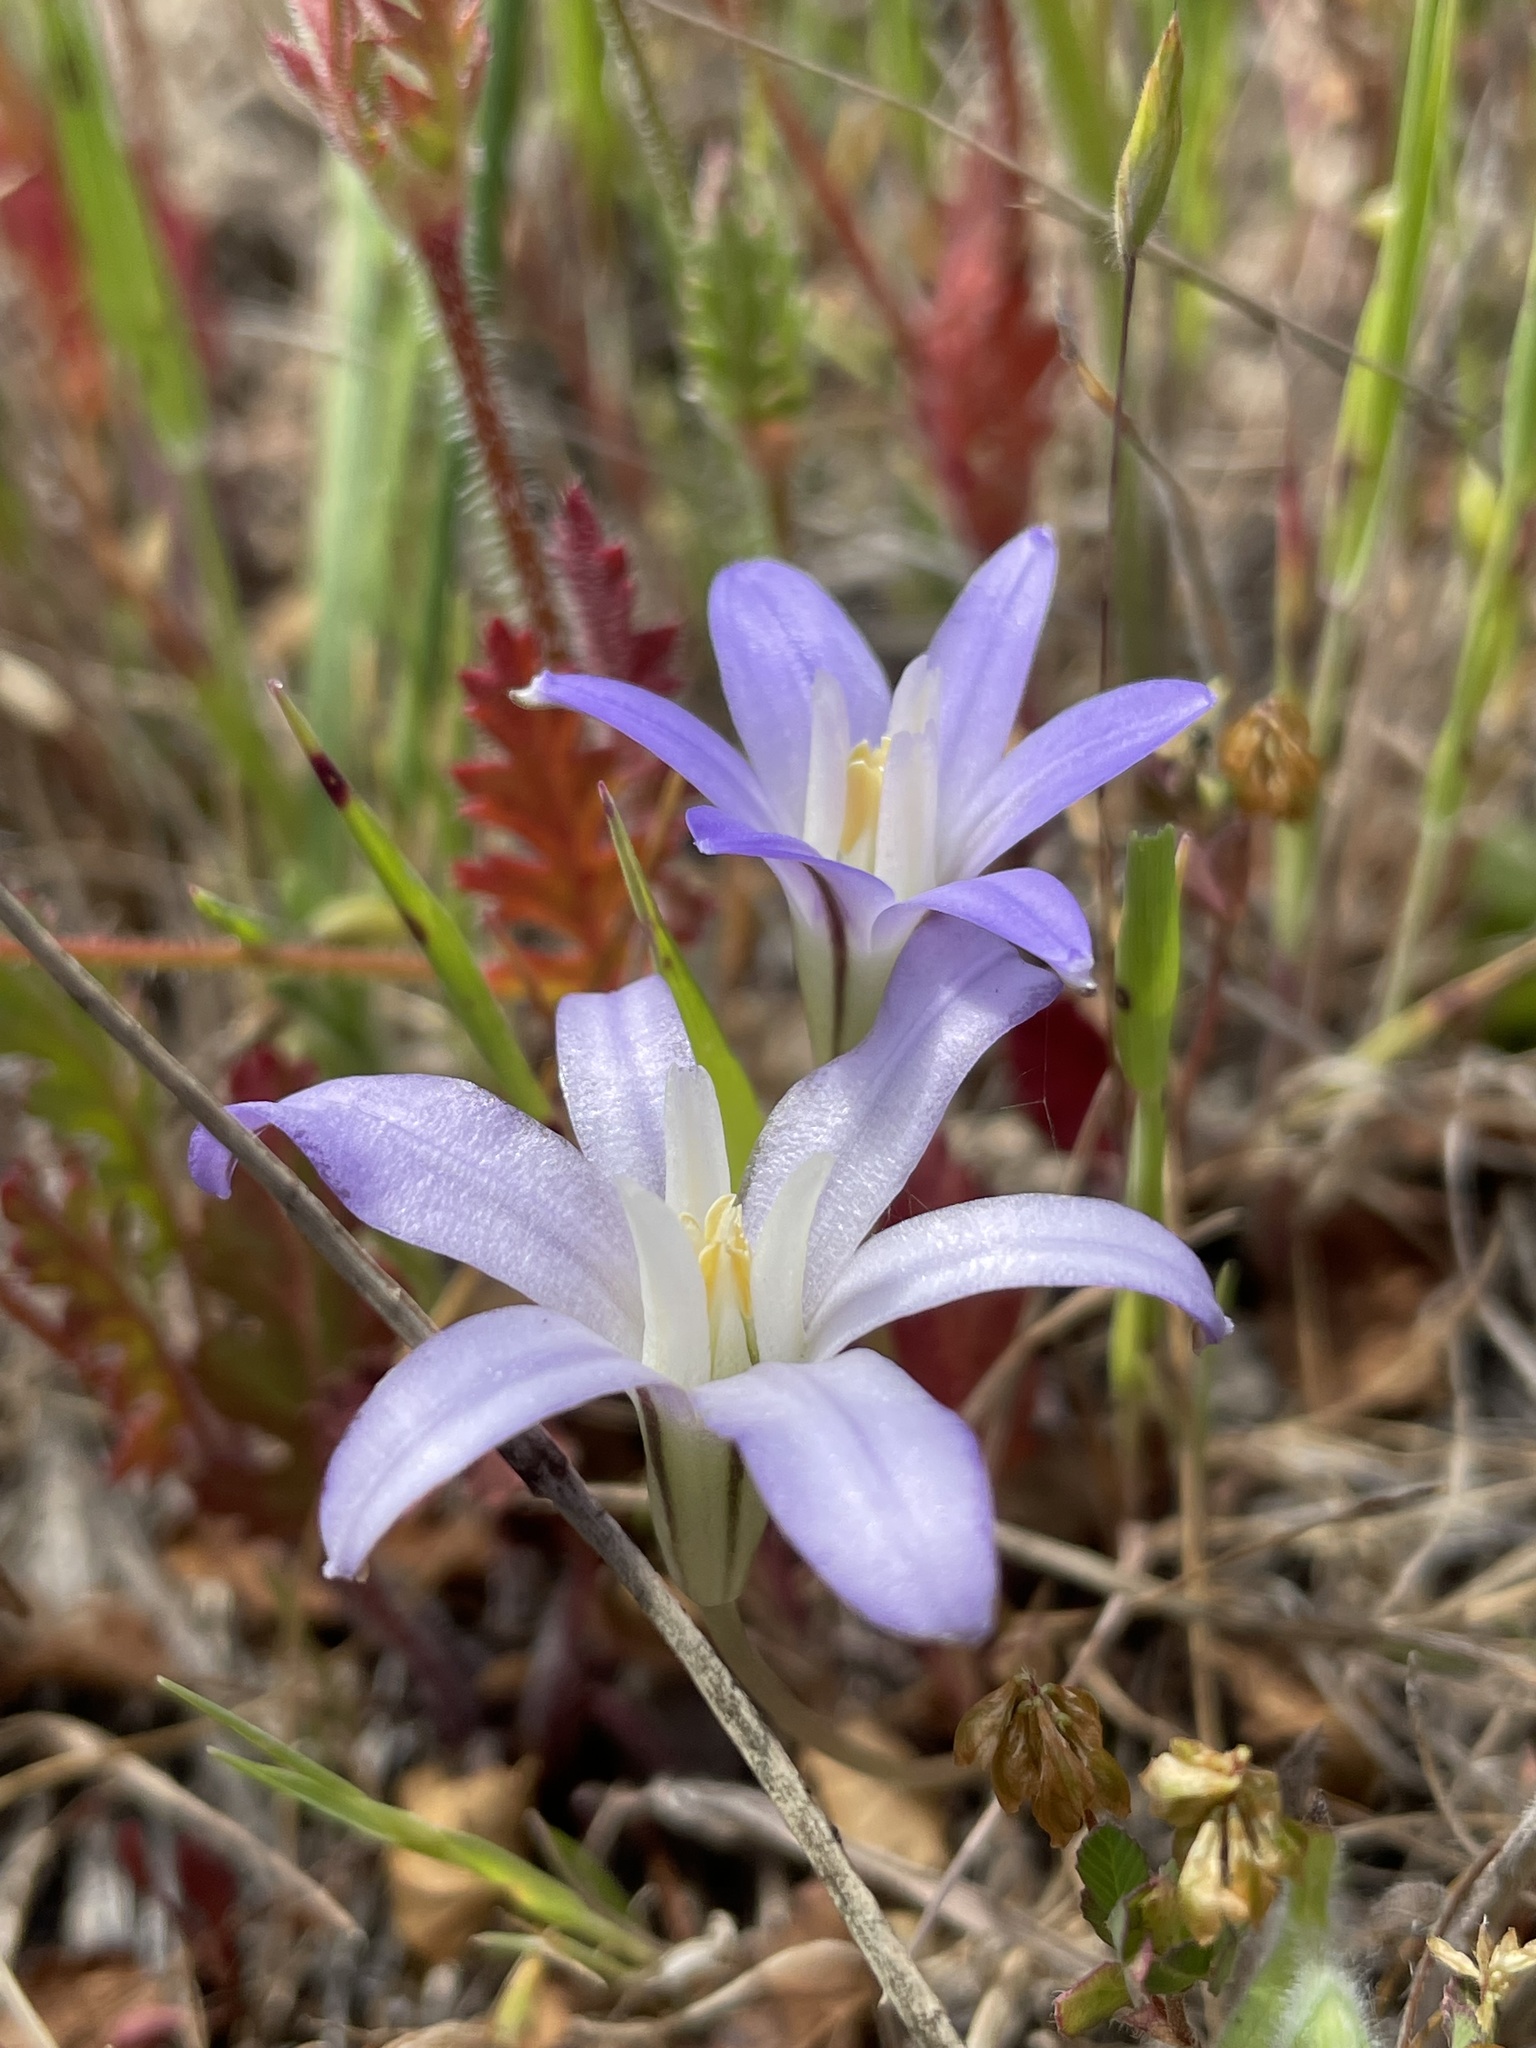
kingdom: Plantae
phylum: Tracheophyta
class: Liliopsida
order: Asparagales
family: Asparagaceae
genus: Brodiaea
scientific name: Brodiaea terrestris
